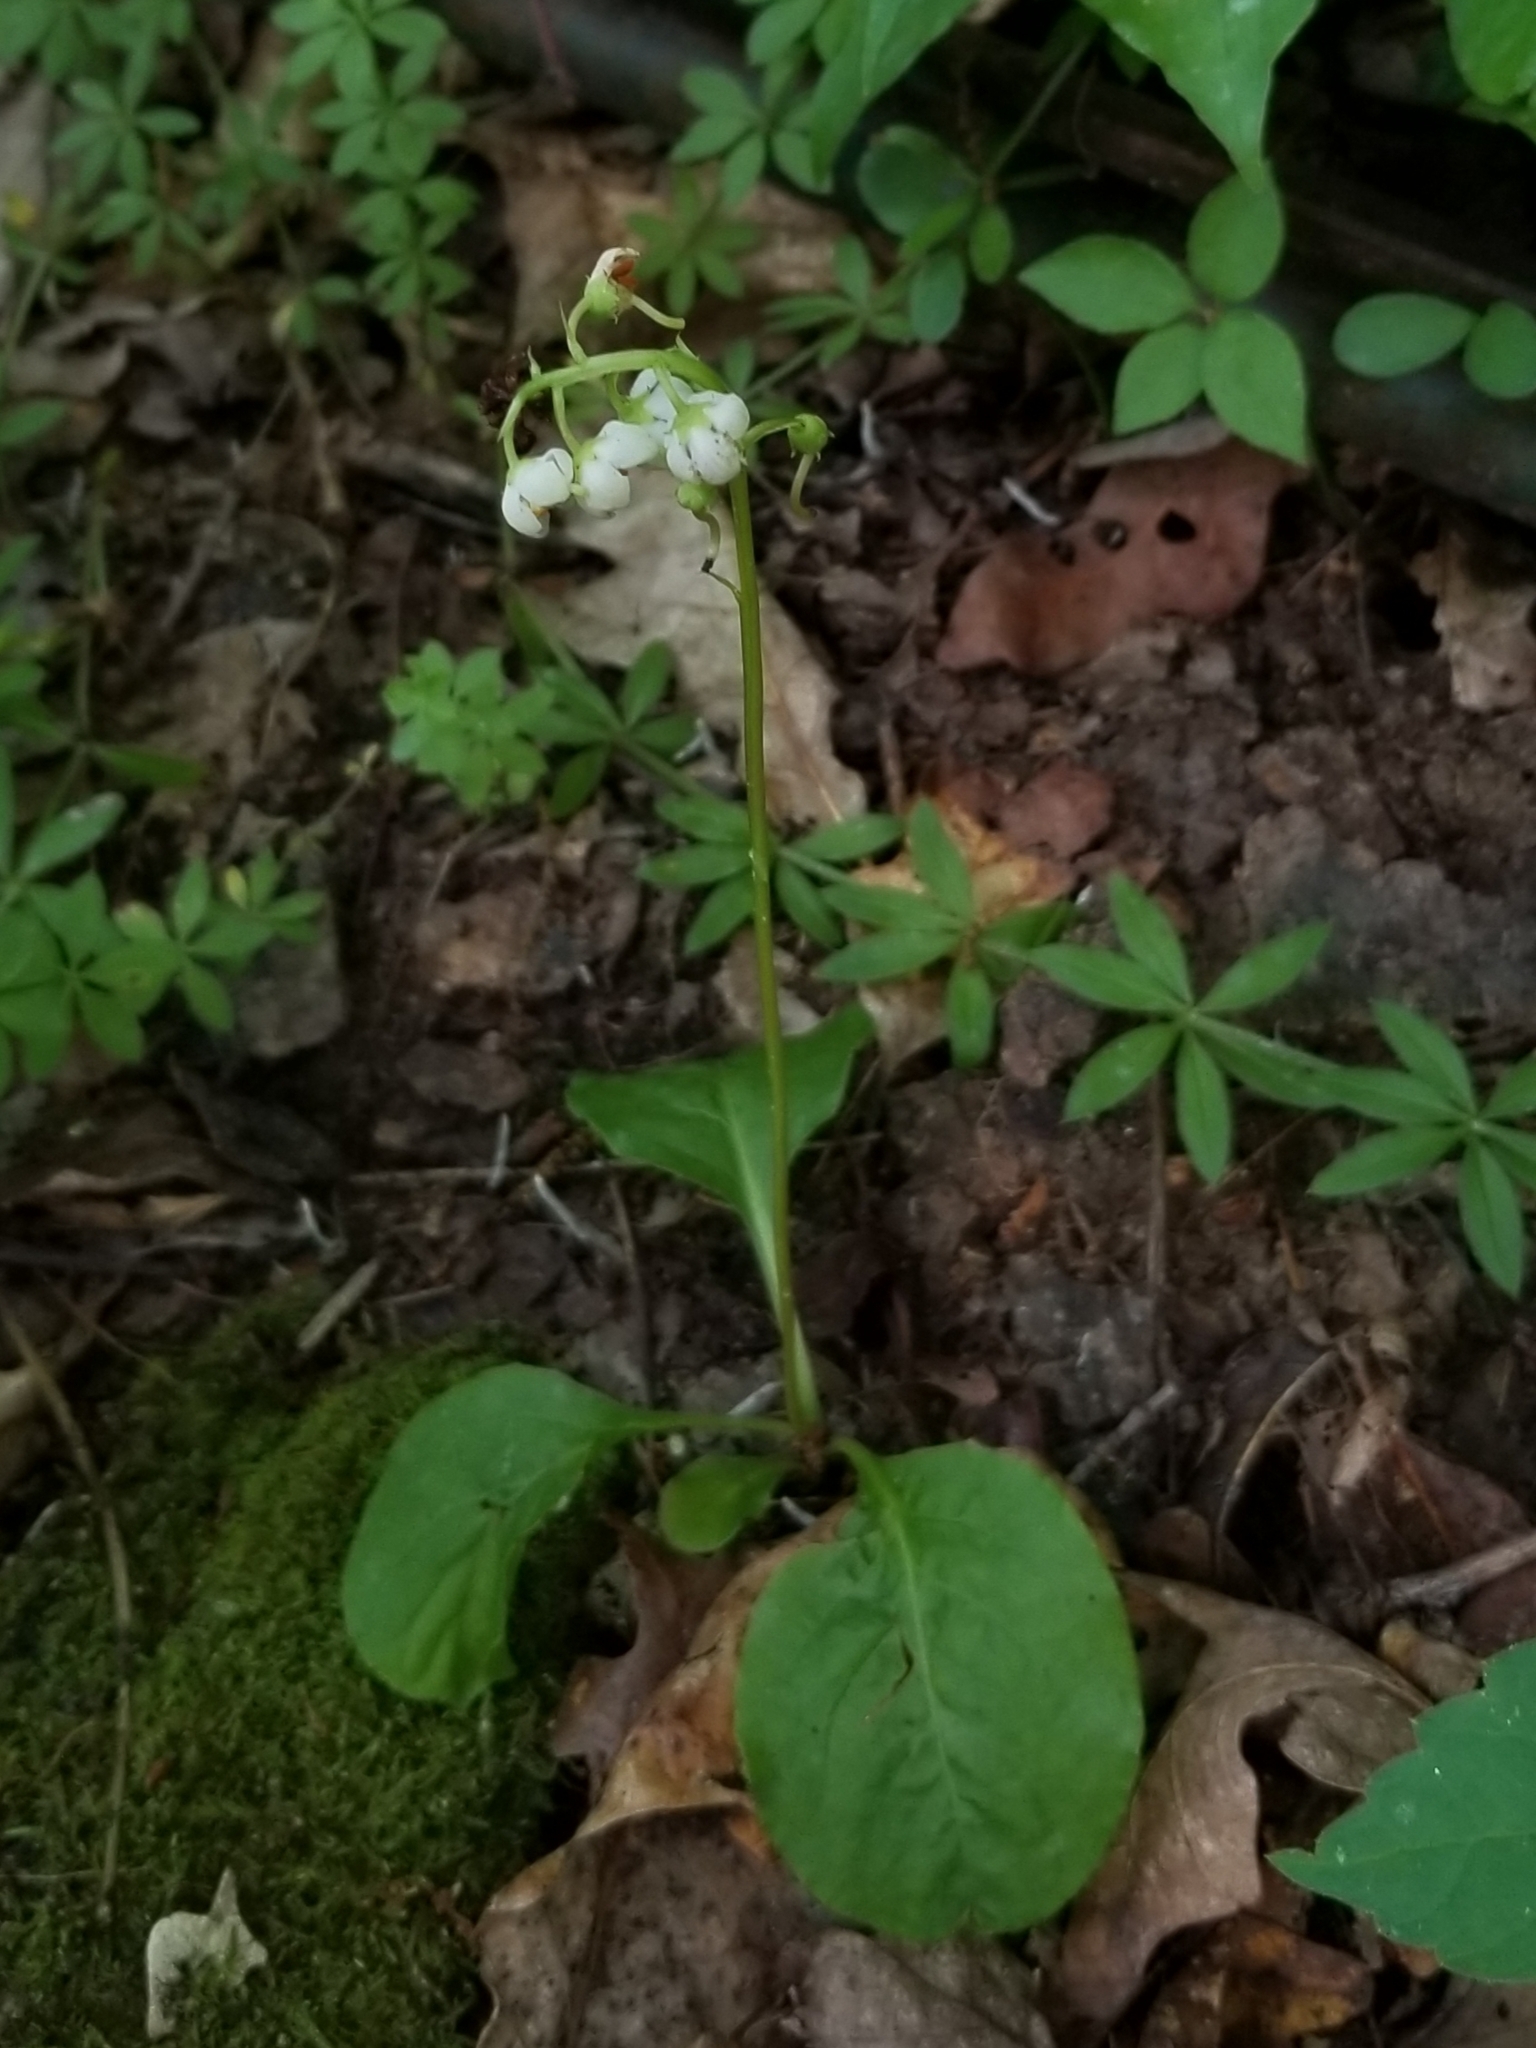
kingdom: Plantae
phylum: Tracheophyta
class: Magnoliopsida
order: Ericales
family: Ericaceae
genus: Pyrola
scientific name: Pyrola elliptica
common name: Shinleaf
